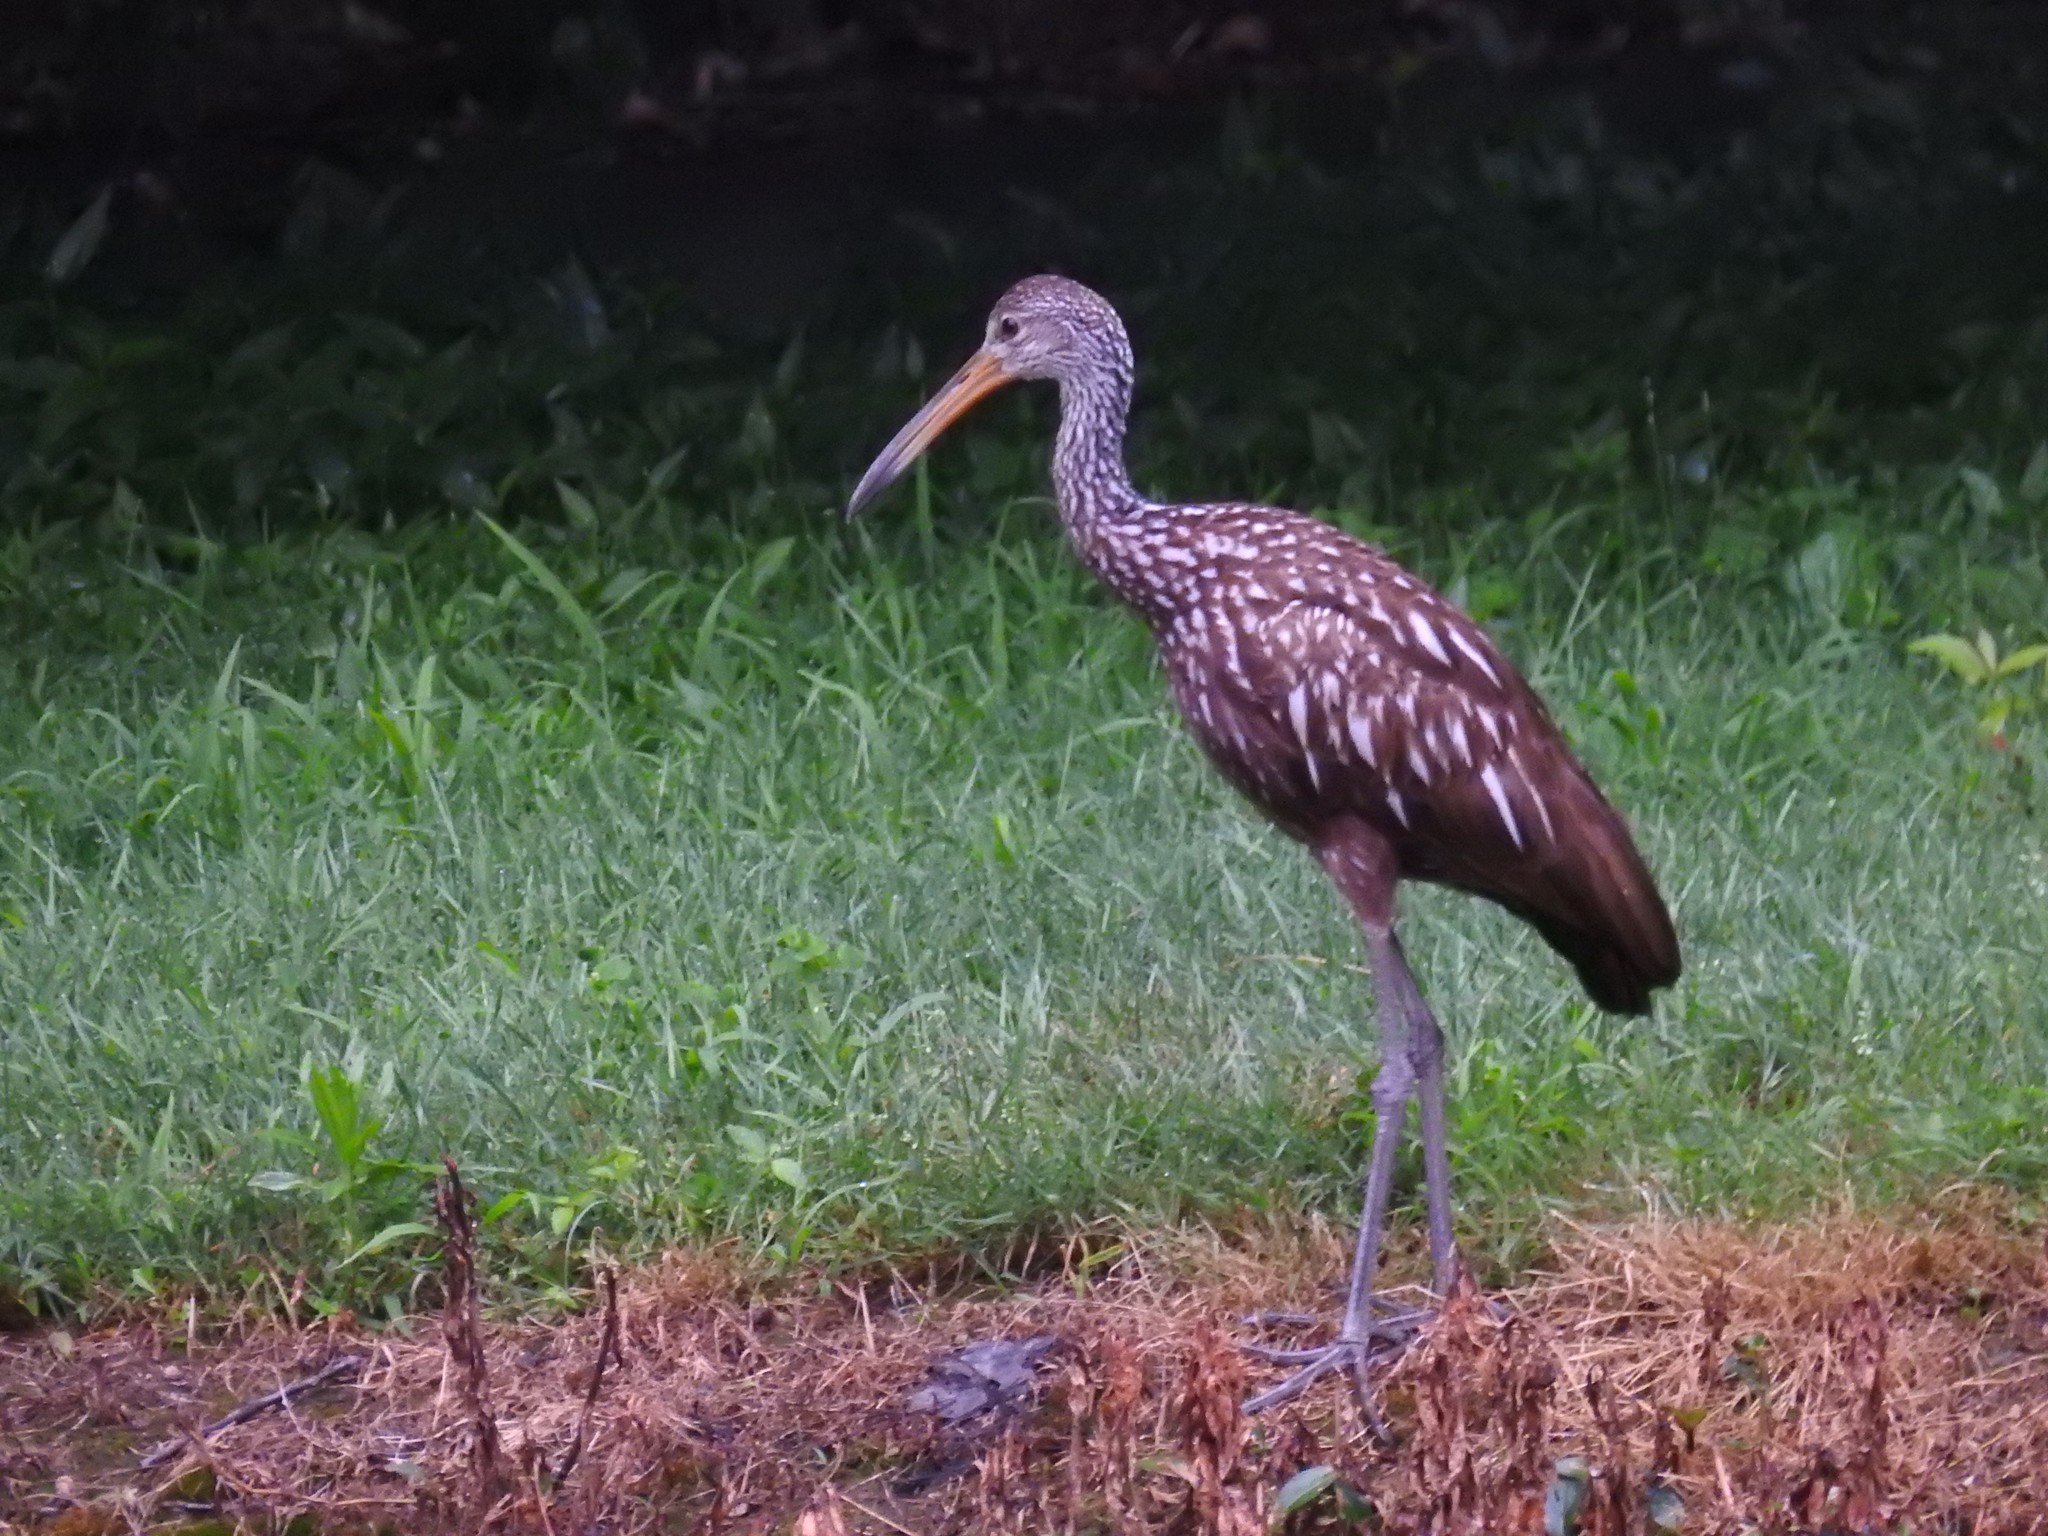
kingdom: Animalia
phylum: Chordata
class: Aves
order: Gruiformes
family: Aramidae
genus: Aramus
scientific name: Aramus guarauna
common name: Limpkin
